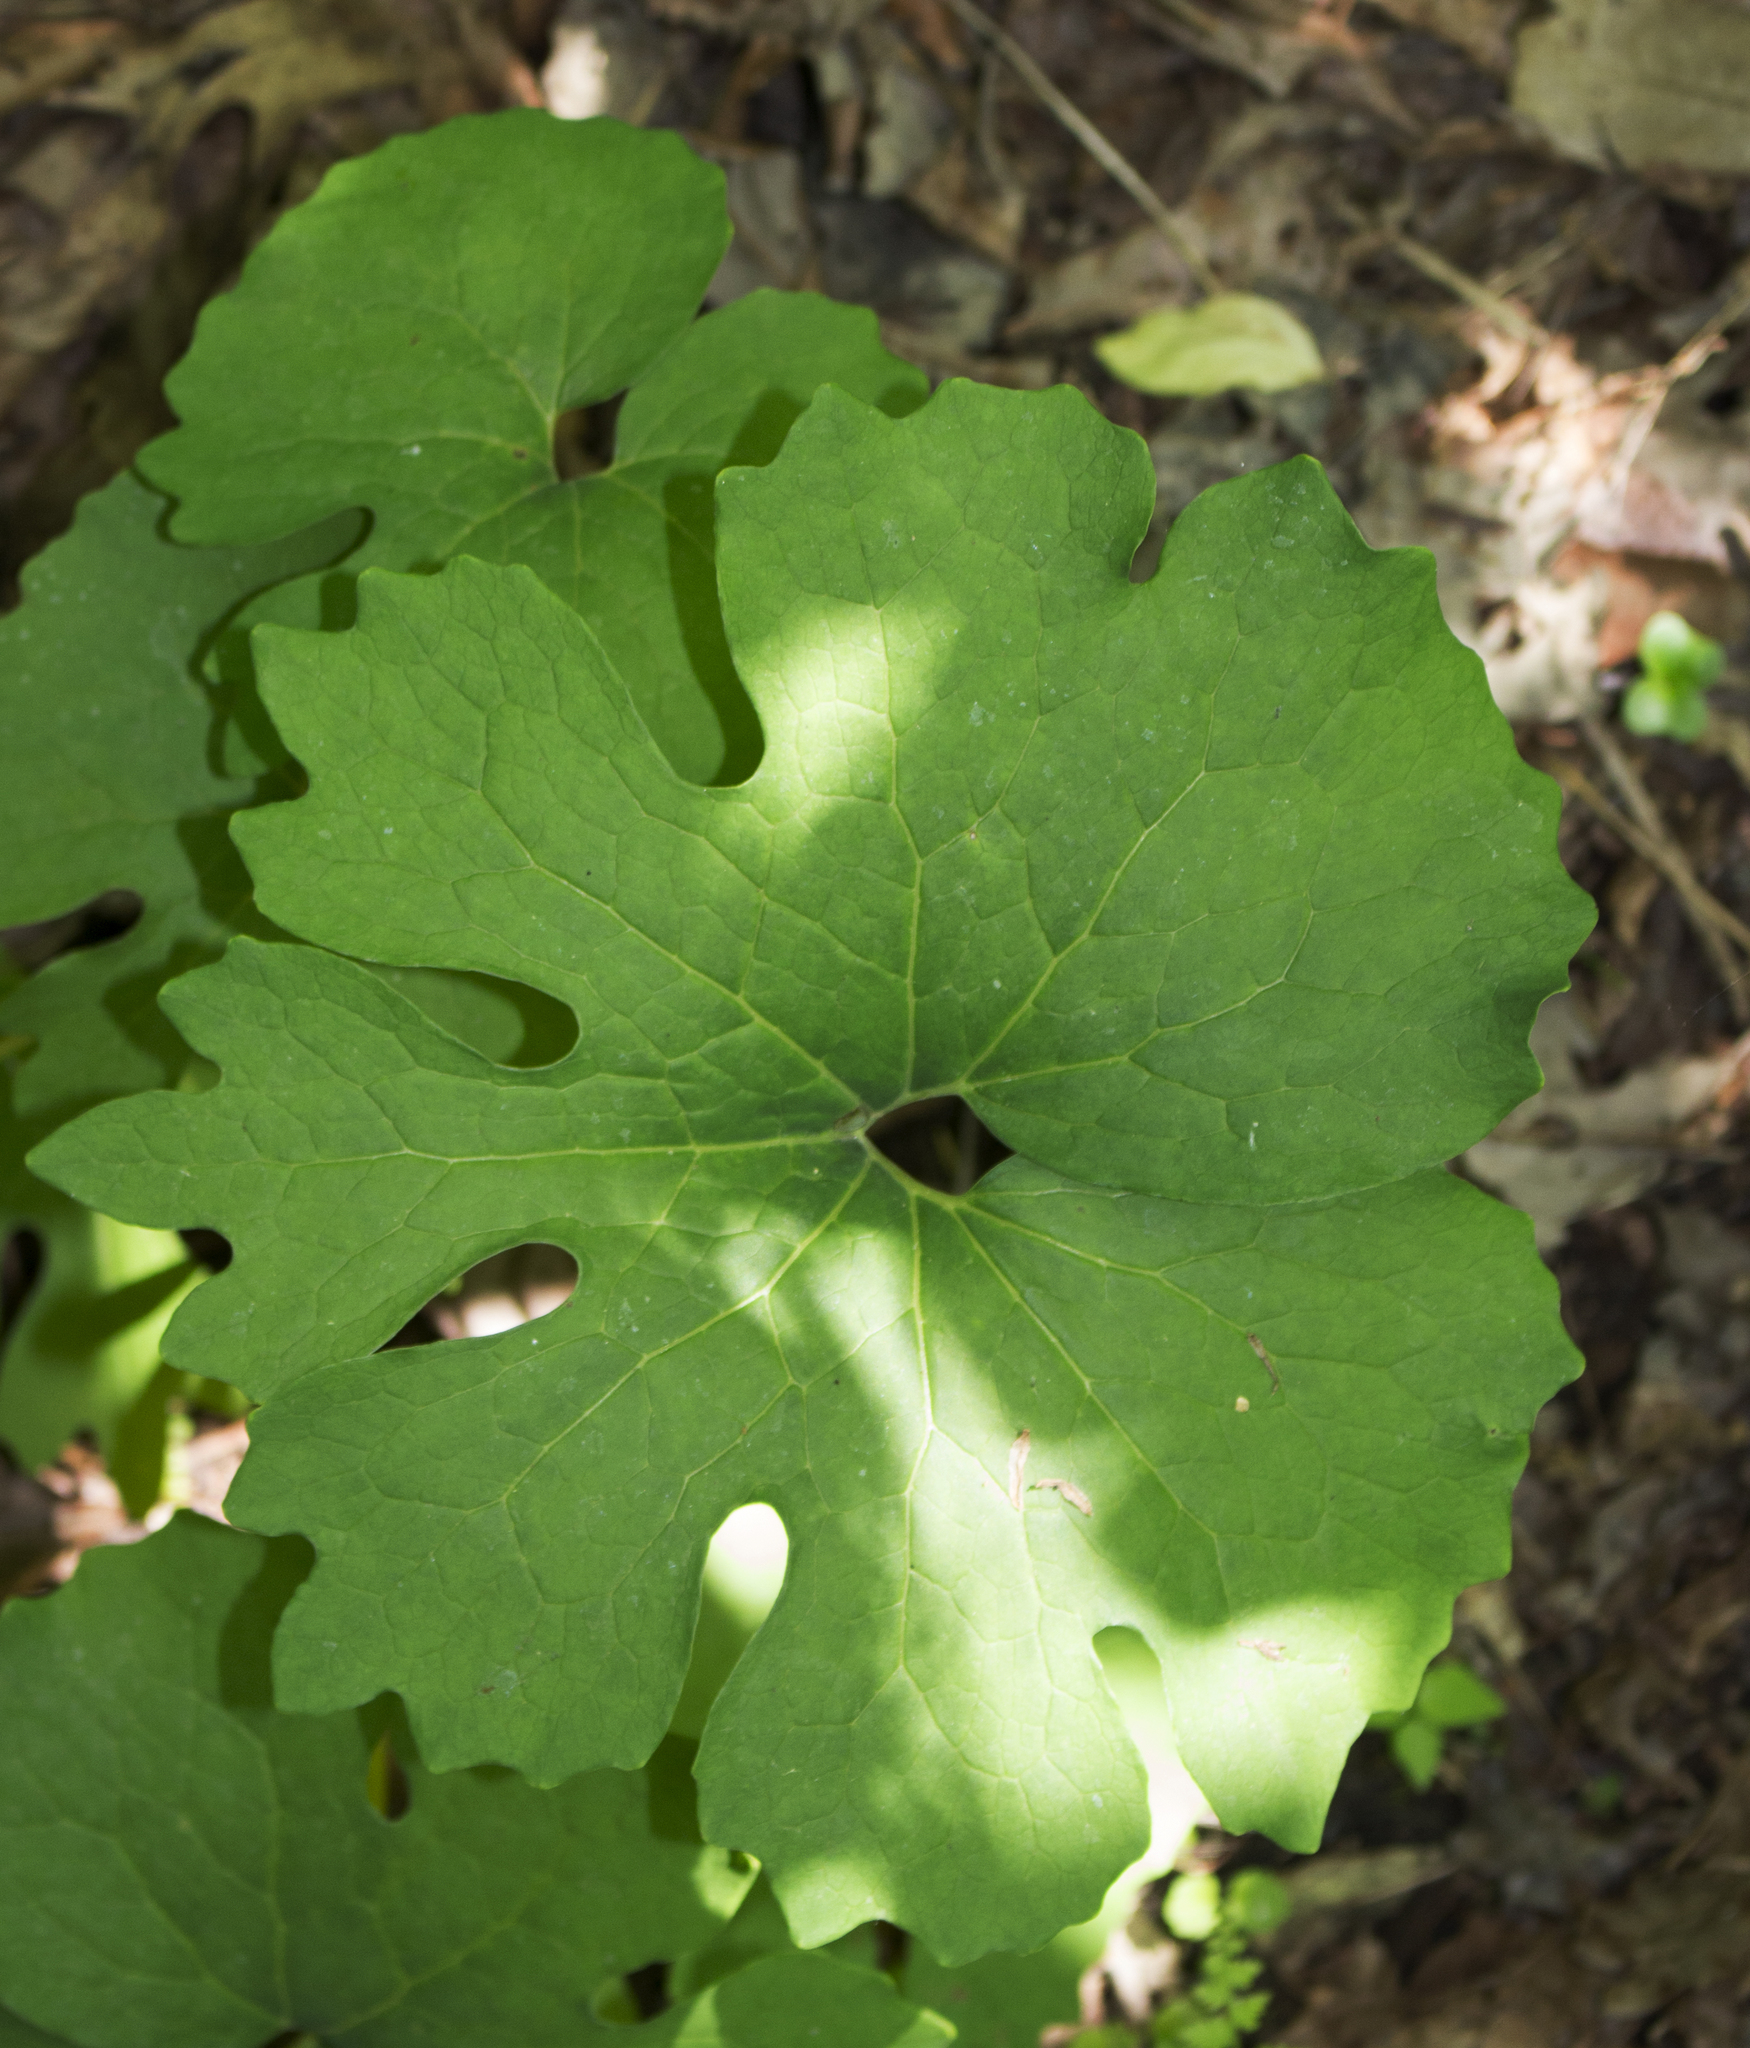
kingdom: Plantae
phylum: Tracheophyta
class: Magnoliopsida
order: Ranunculales
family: Papaveraceae
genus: Sanguinaria
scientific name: Sanguinaria canadensis
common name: Bloodroot
